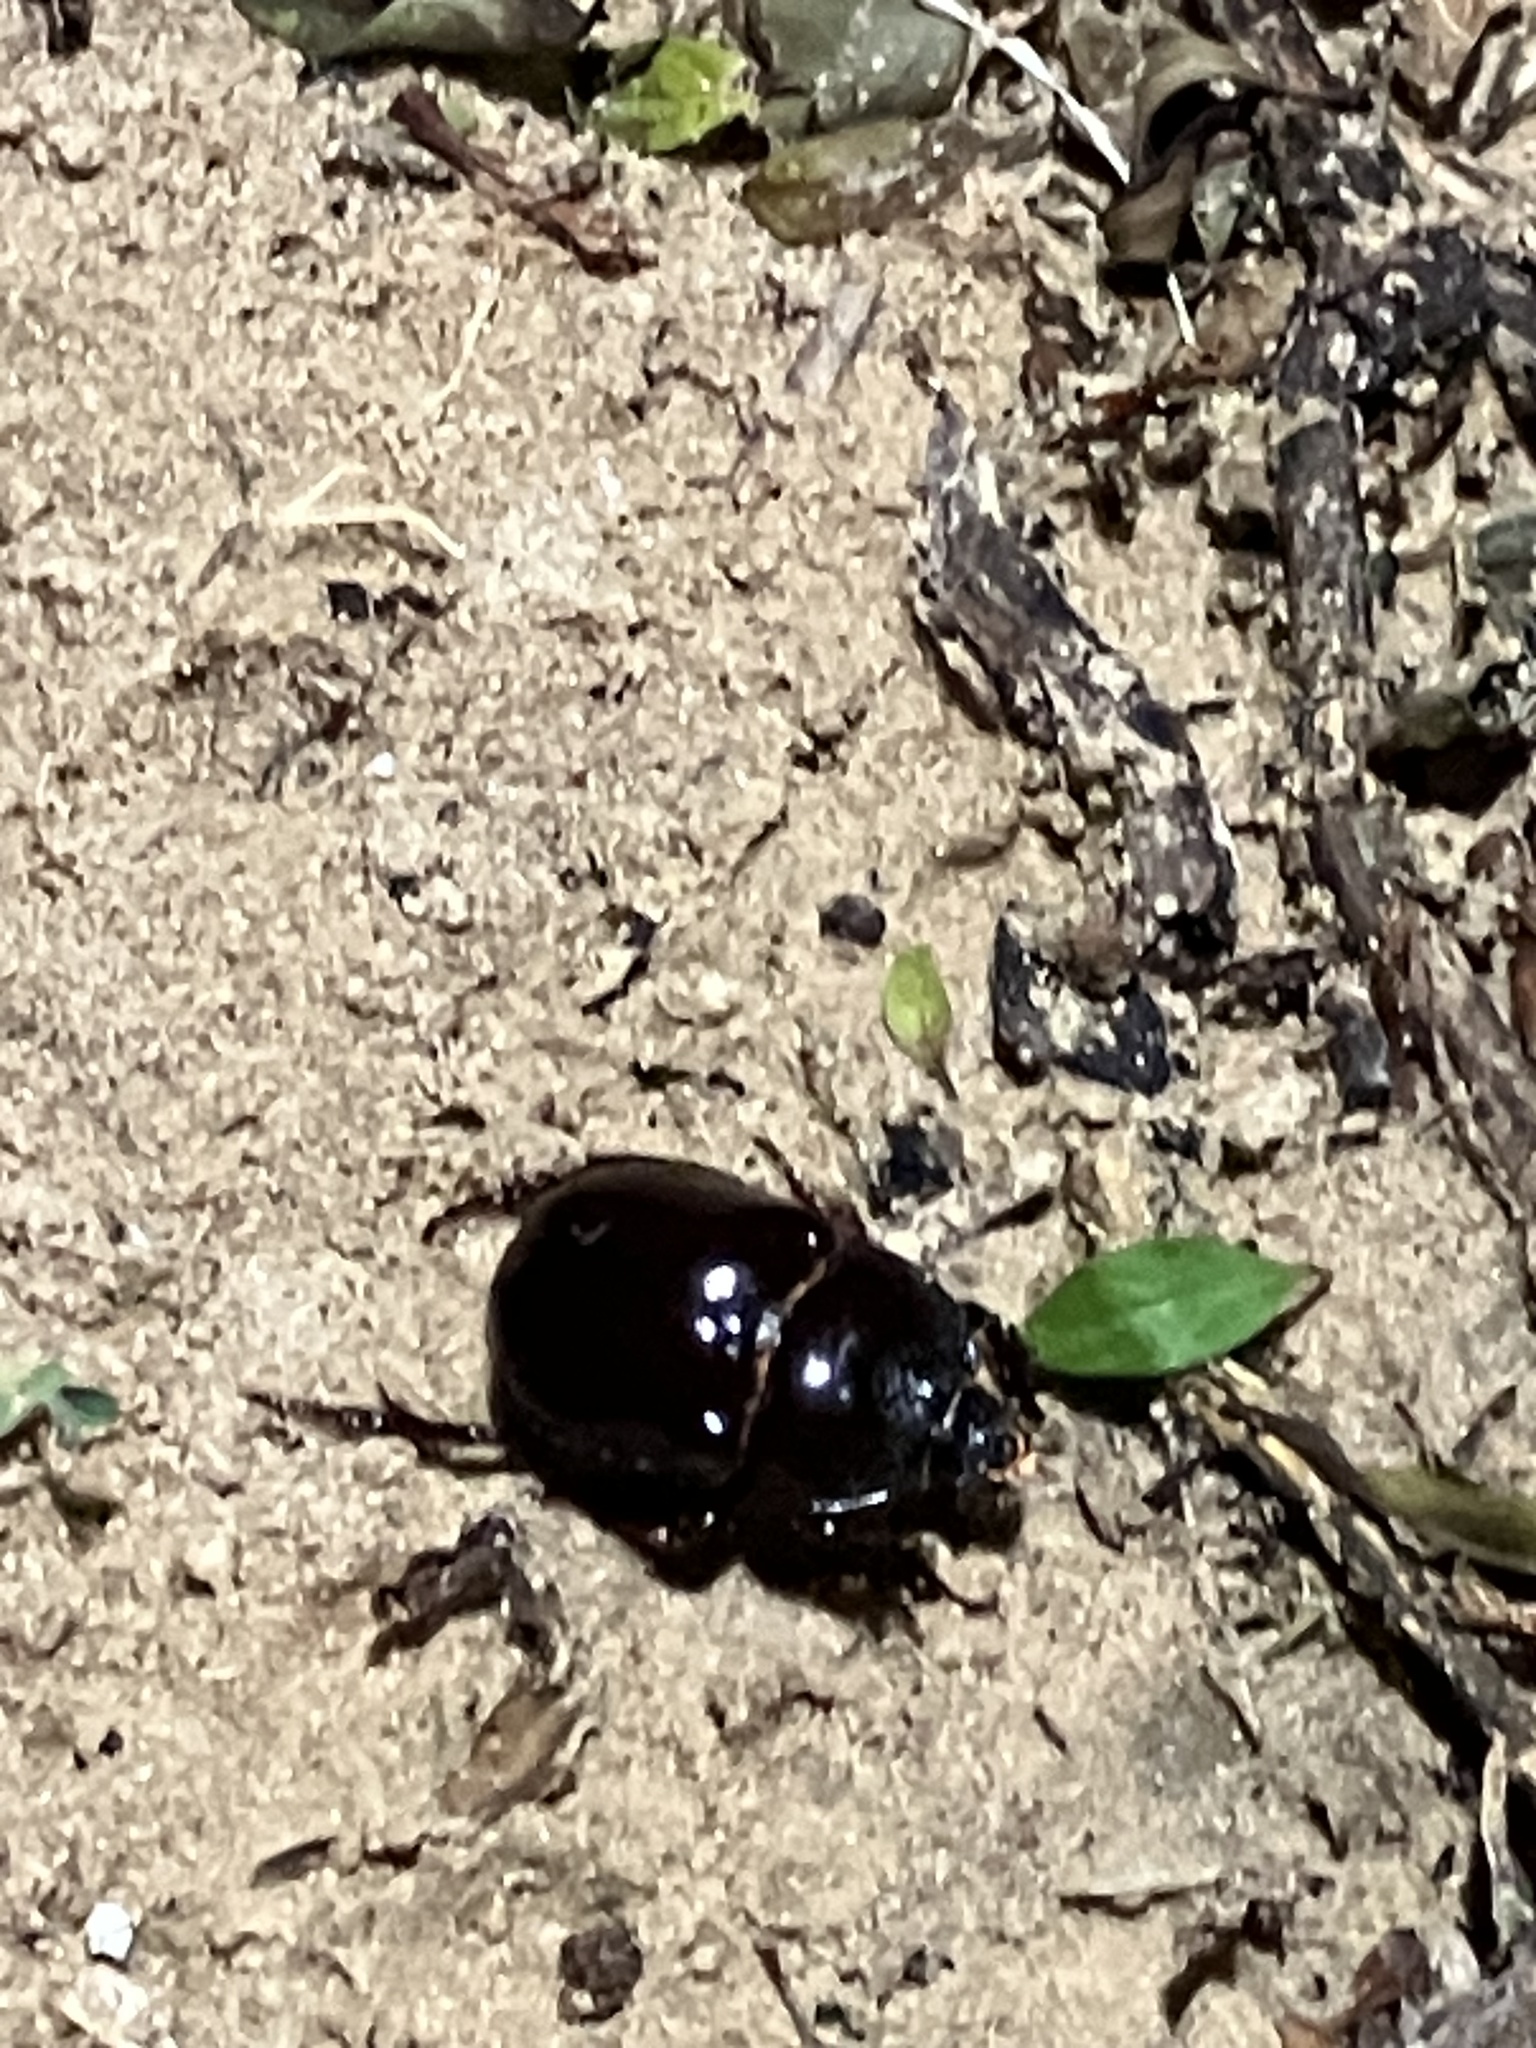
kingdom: Animalia
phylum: Arthropoda
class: Insecta
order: Coleoptera
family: Scarabaeidae
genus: Strategus
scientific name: Strategus antaeus
